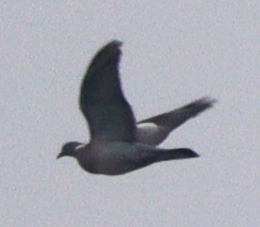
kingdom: Animalia
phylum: Chordata
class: Aves
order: Columbiformes
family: Columbidae
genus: Columba
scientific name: Columba palumbus
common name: Common wood pigeon
